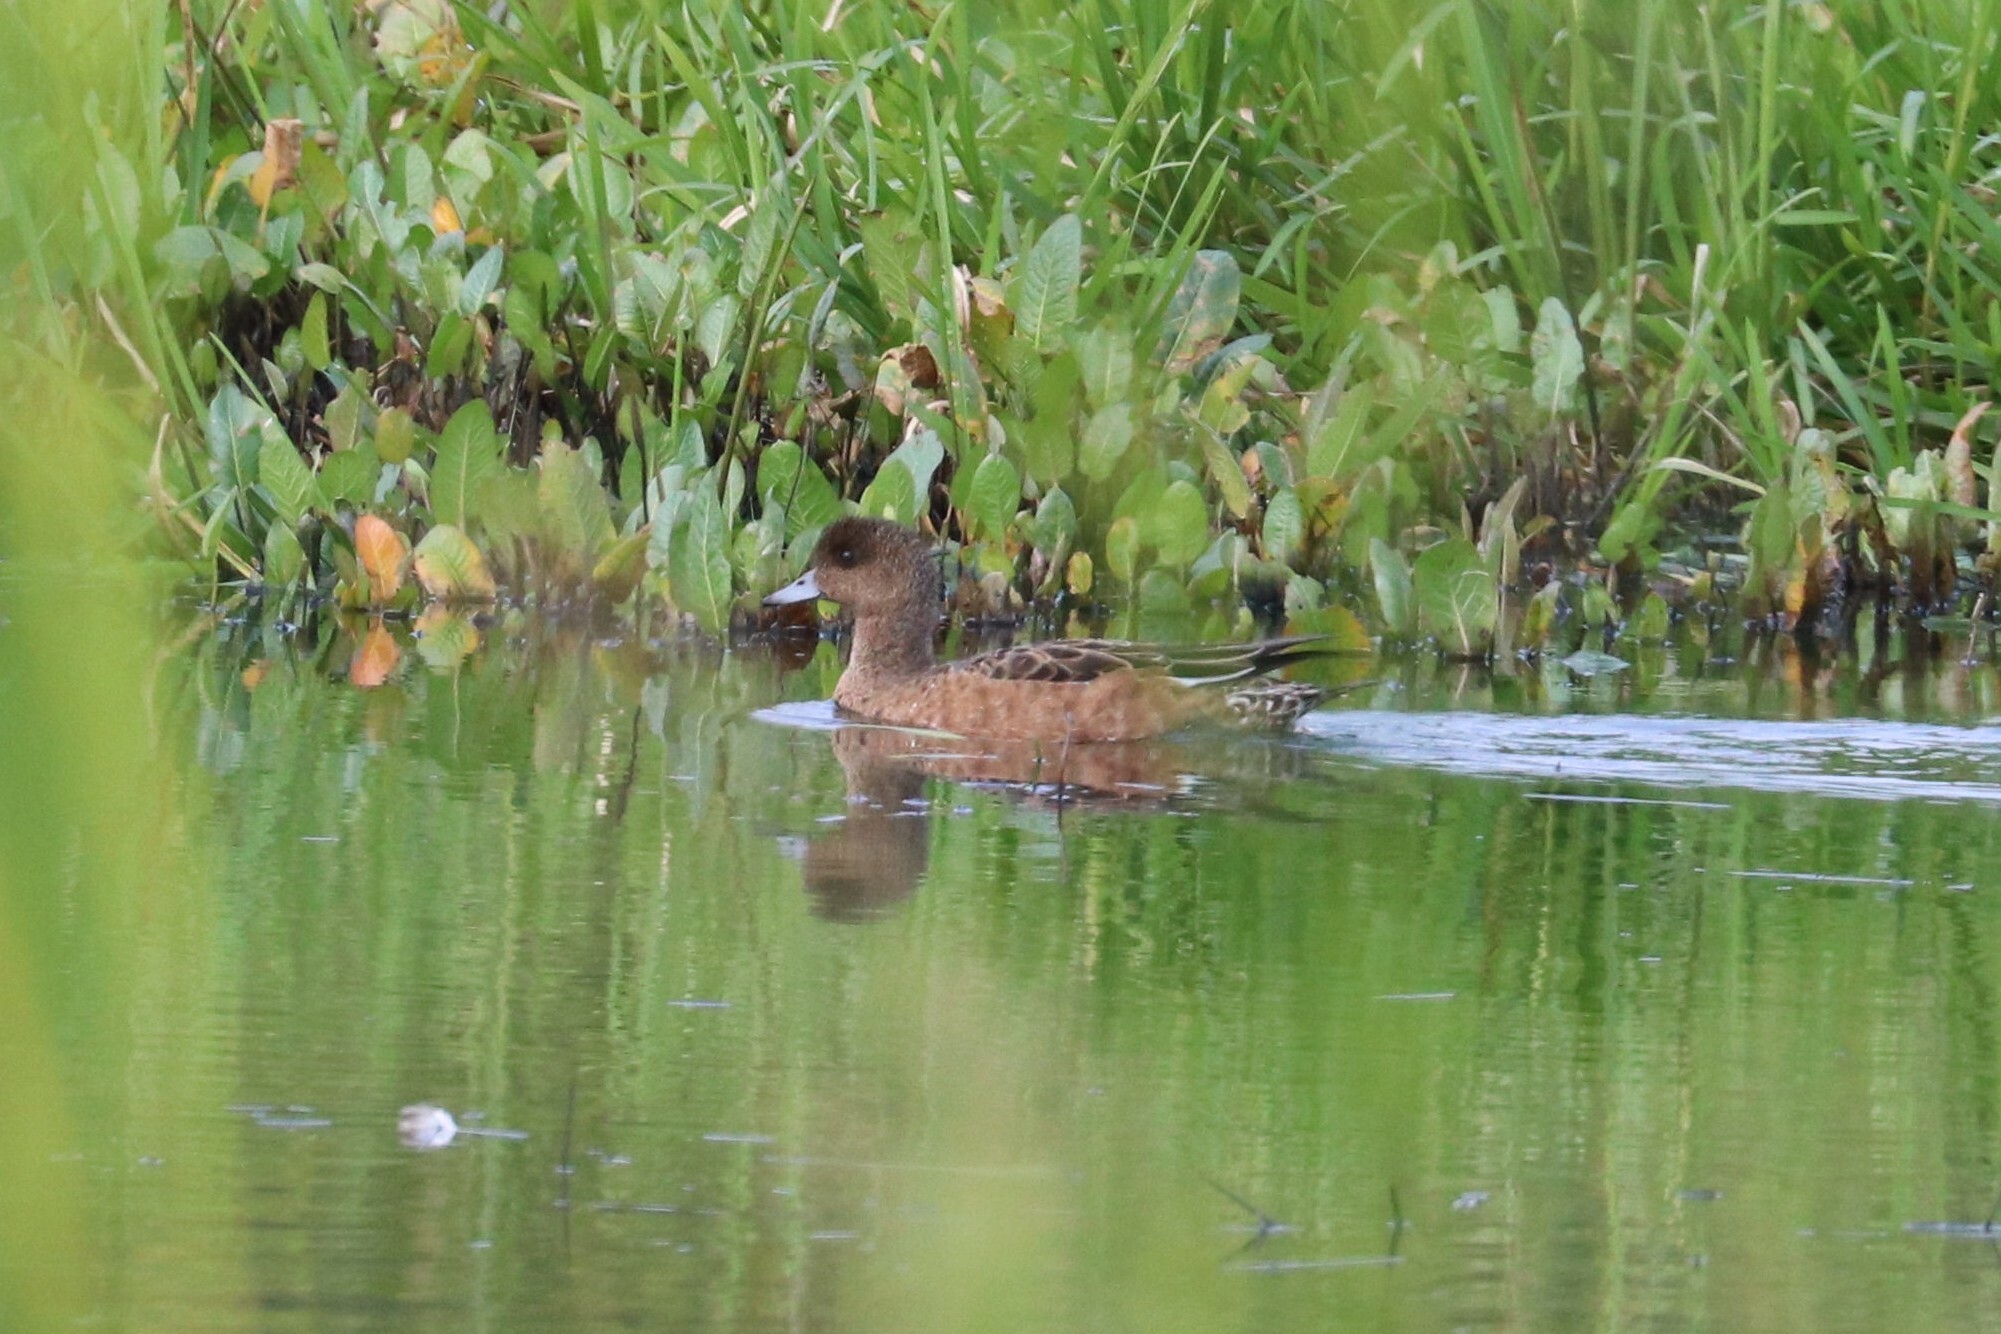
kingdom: Animalia
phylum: Chordata
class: Aves
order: Anseriformes
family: Anatidae
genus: Mareca
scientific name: Mareca penelope
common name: Eurasian wigeon
